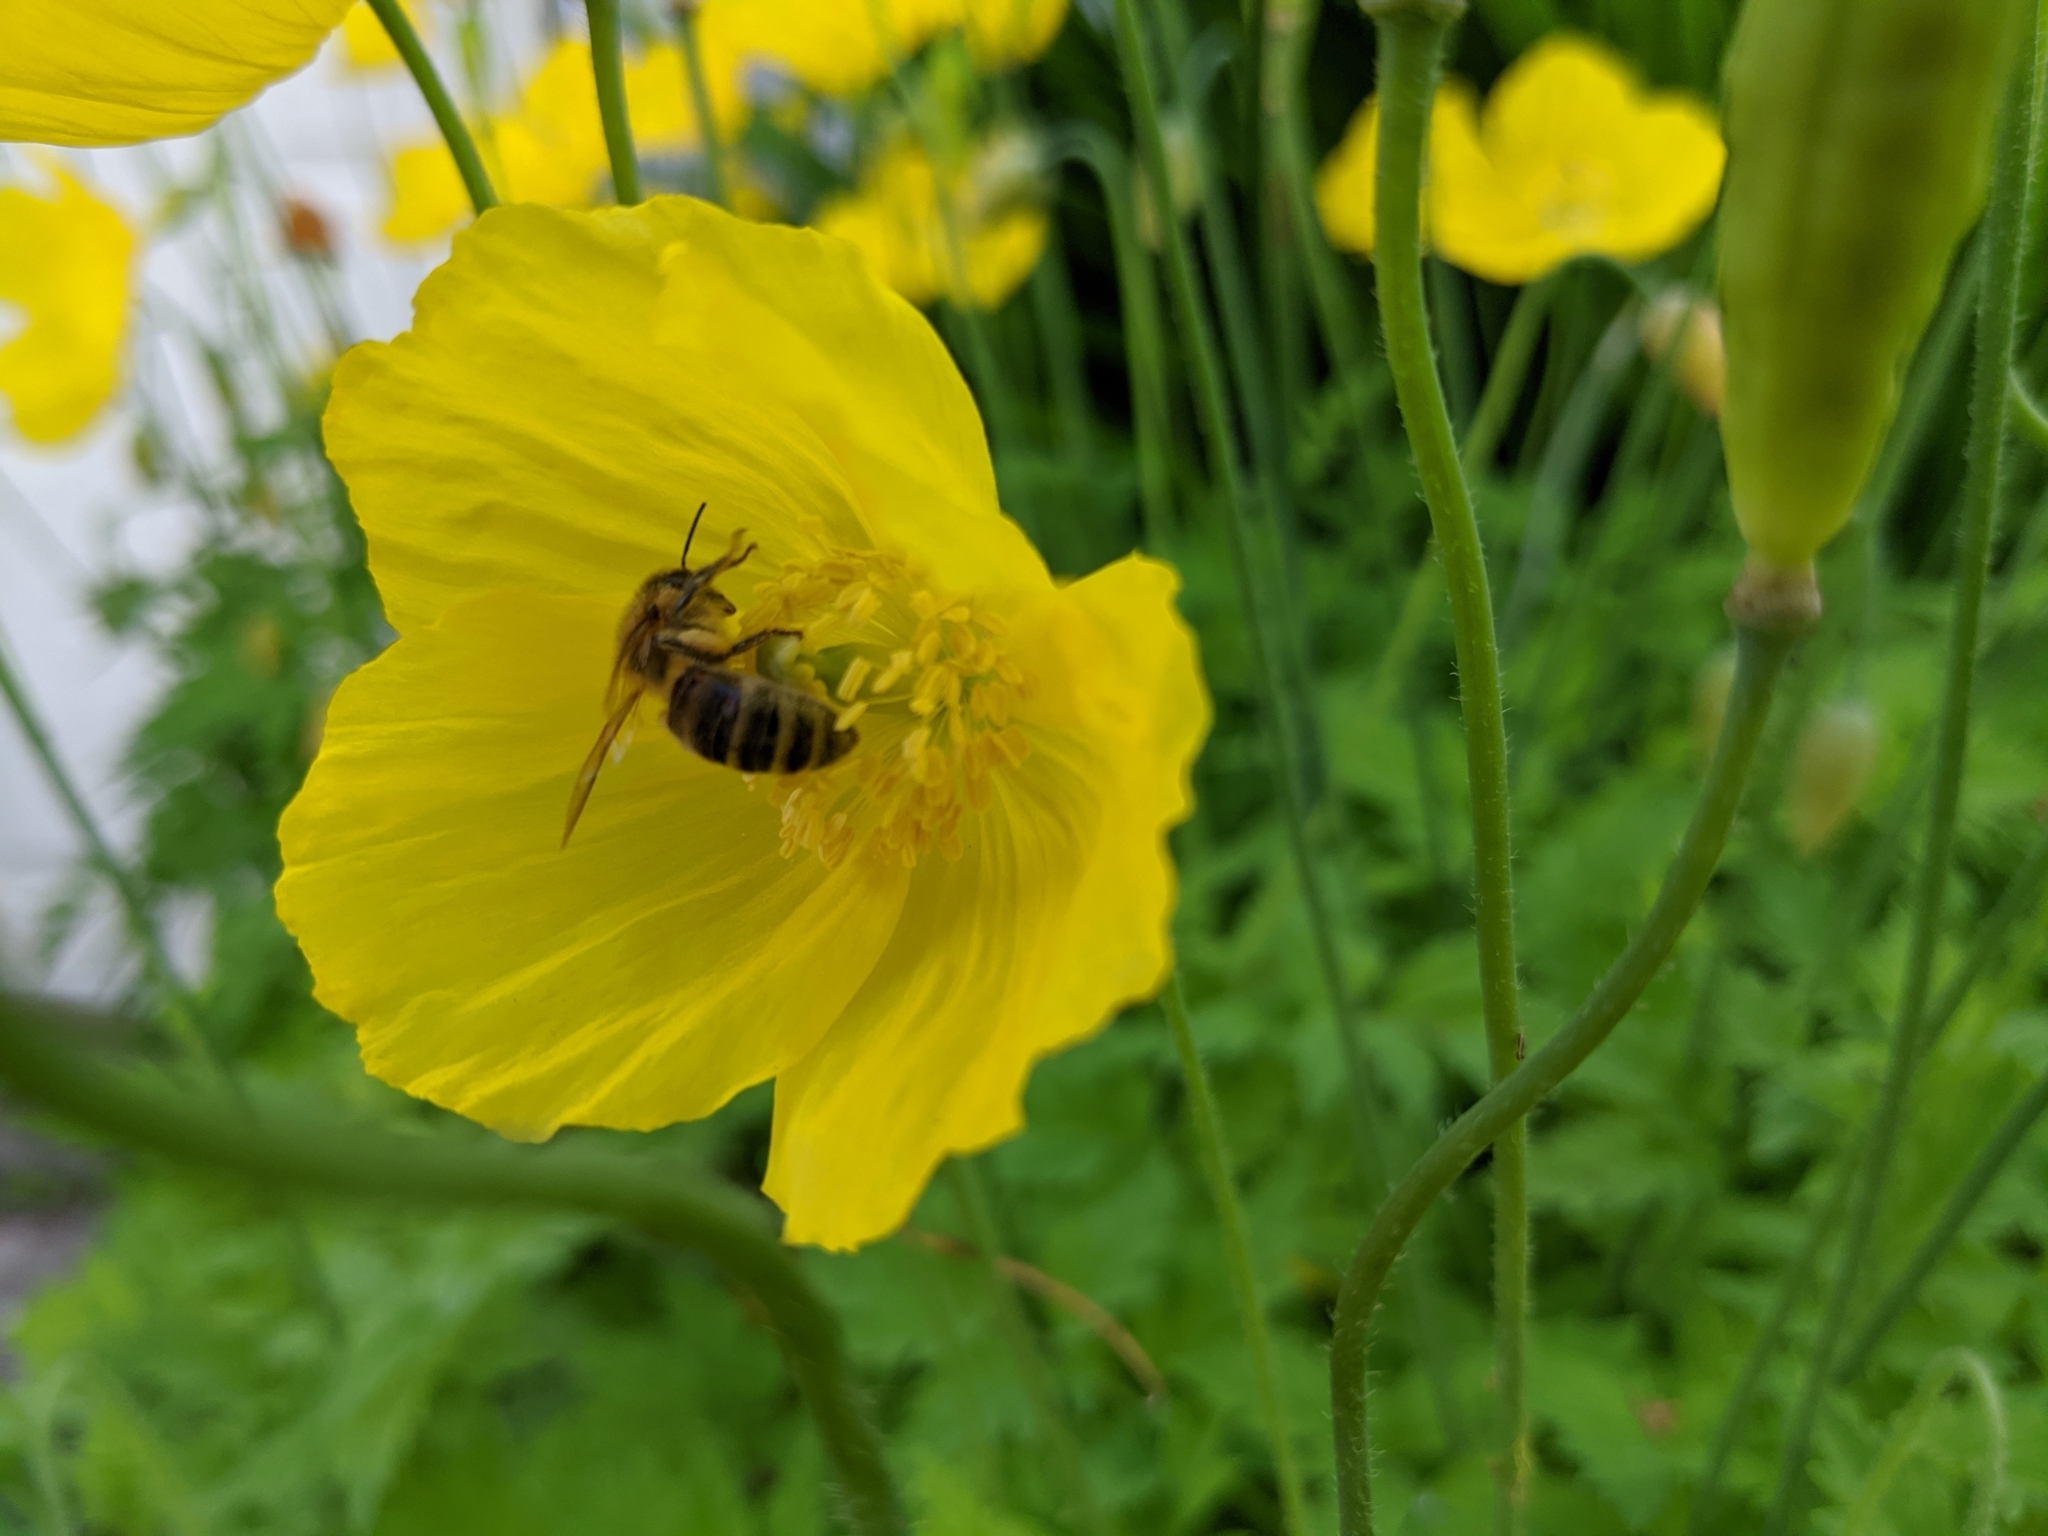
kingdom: Animalia
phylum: Arthropoda
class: Insecta
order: Hymenoptera
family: Apidae
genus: Apis
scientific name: Apis mellifera
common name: Honey bee
